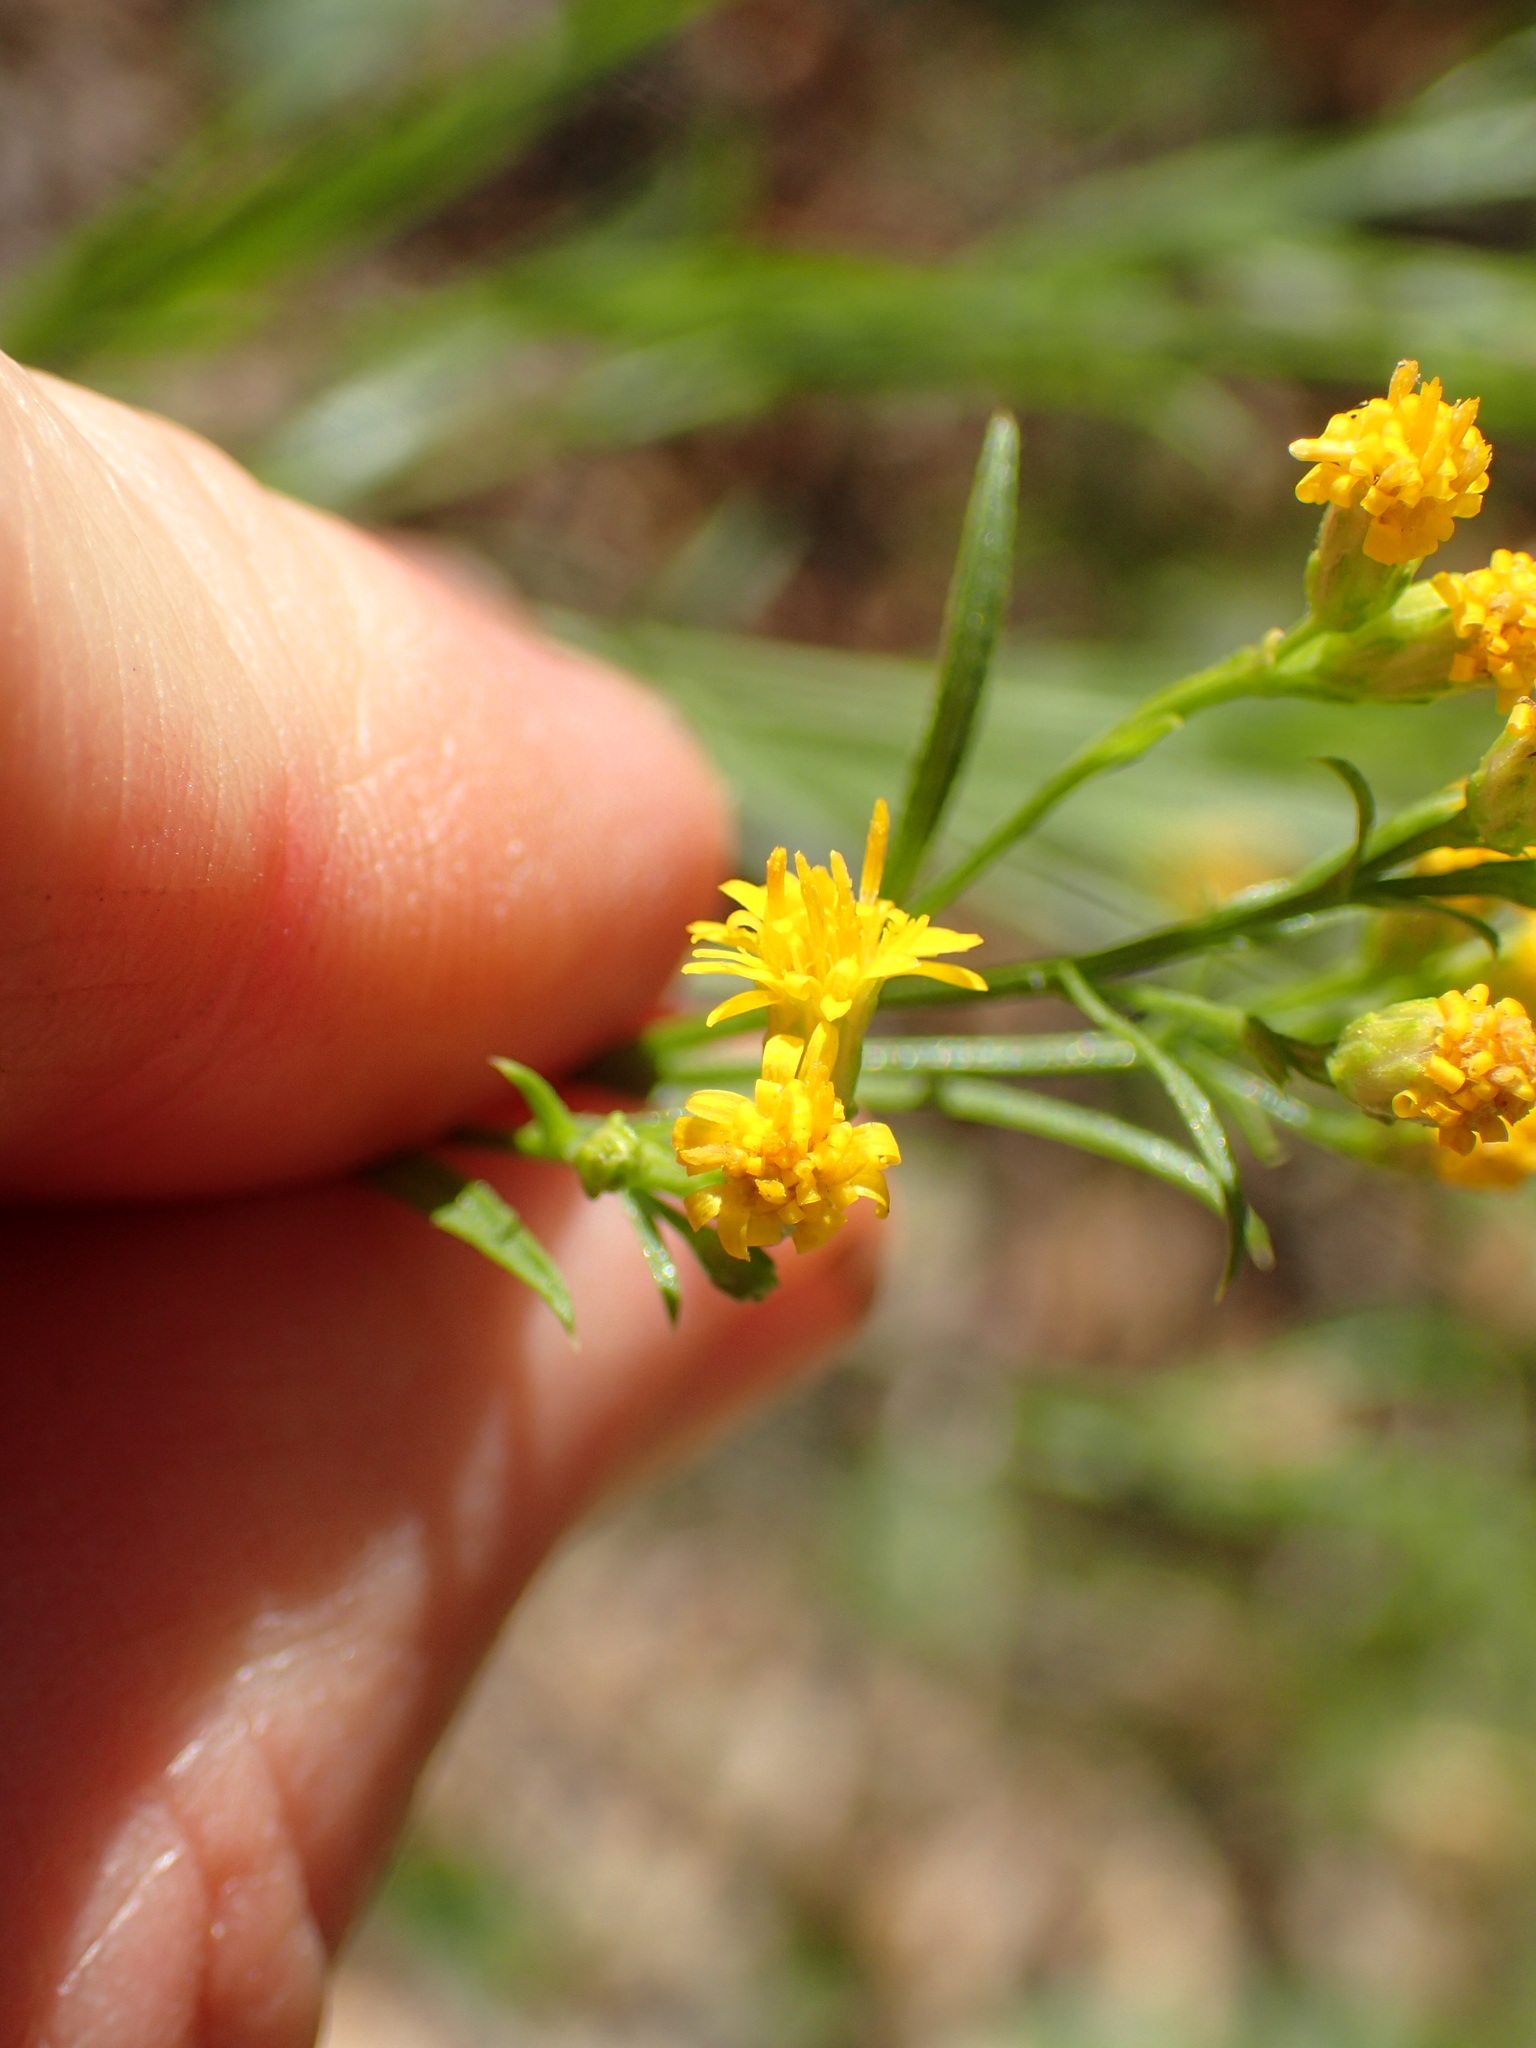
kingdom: Plantae
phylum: Tracheophyta
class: Magnoliopsida
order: Asterales
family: Asteraceae
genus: Euthamia
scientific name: Euthamia occidentalis
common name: Western goldentop
